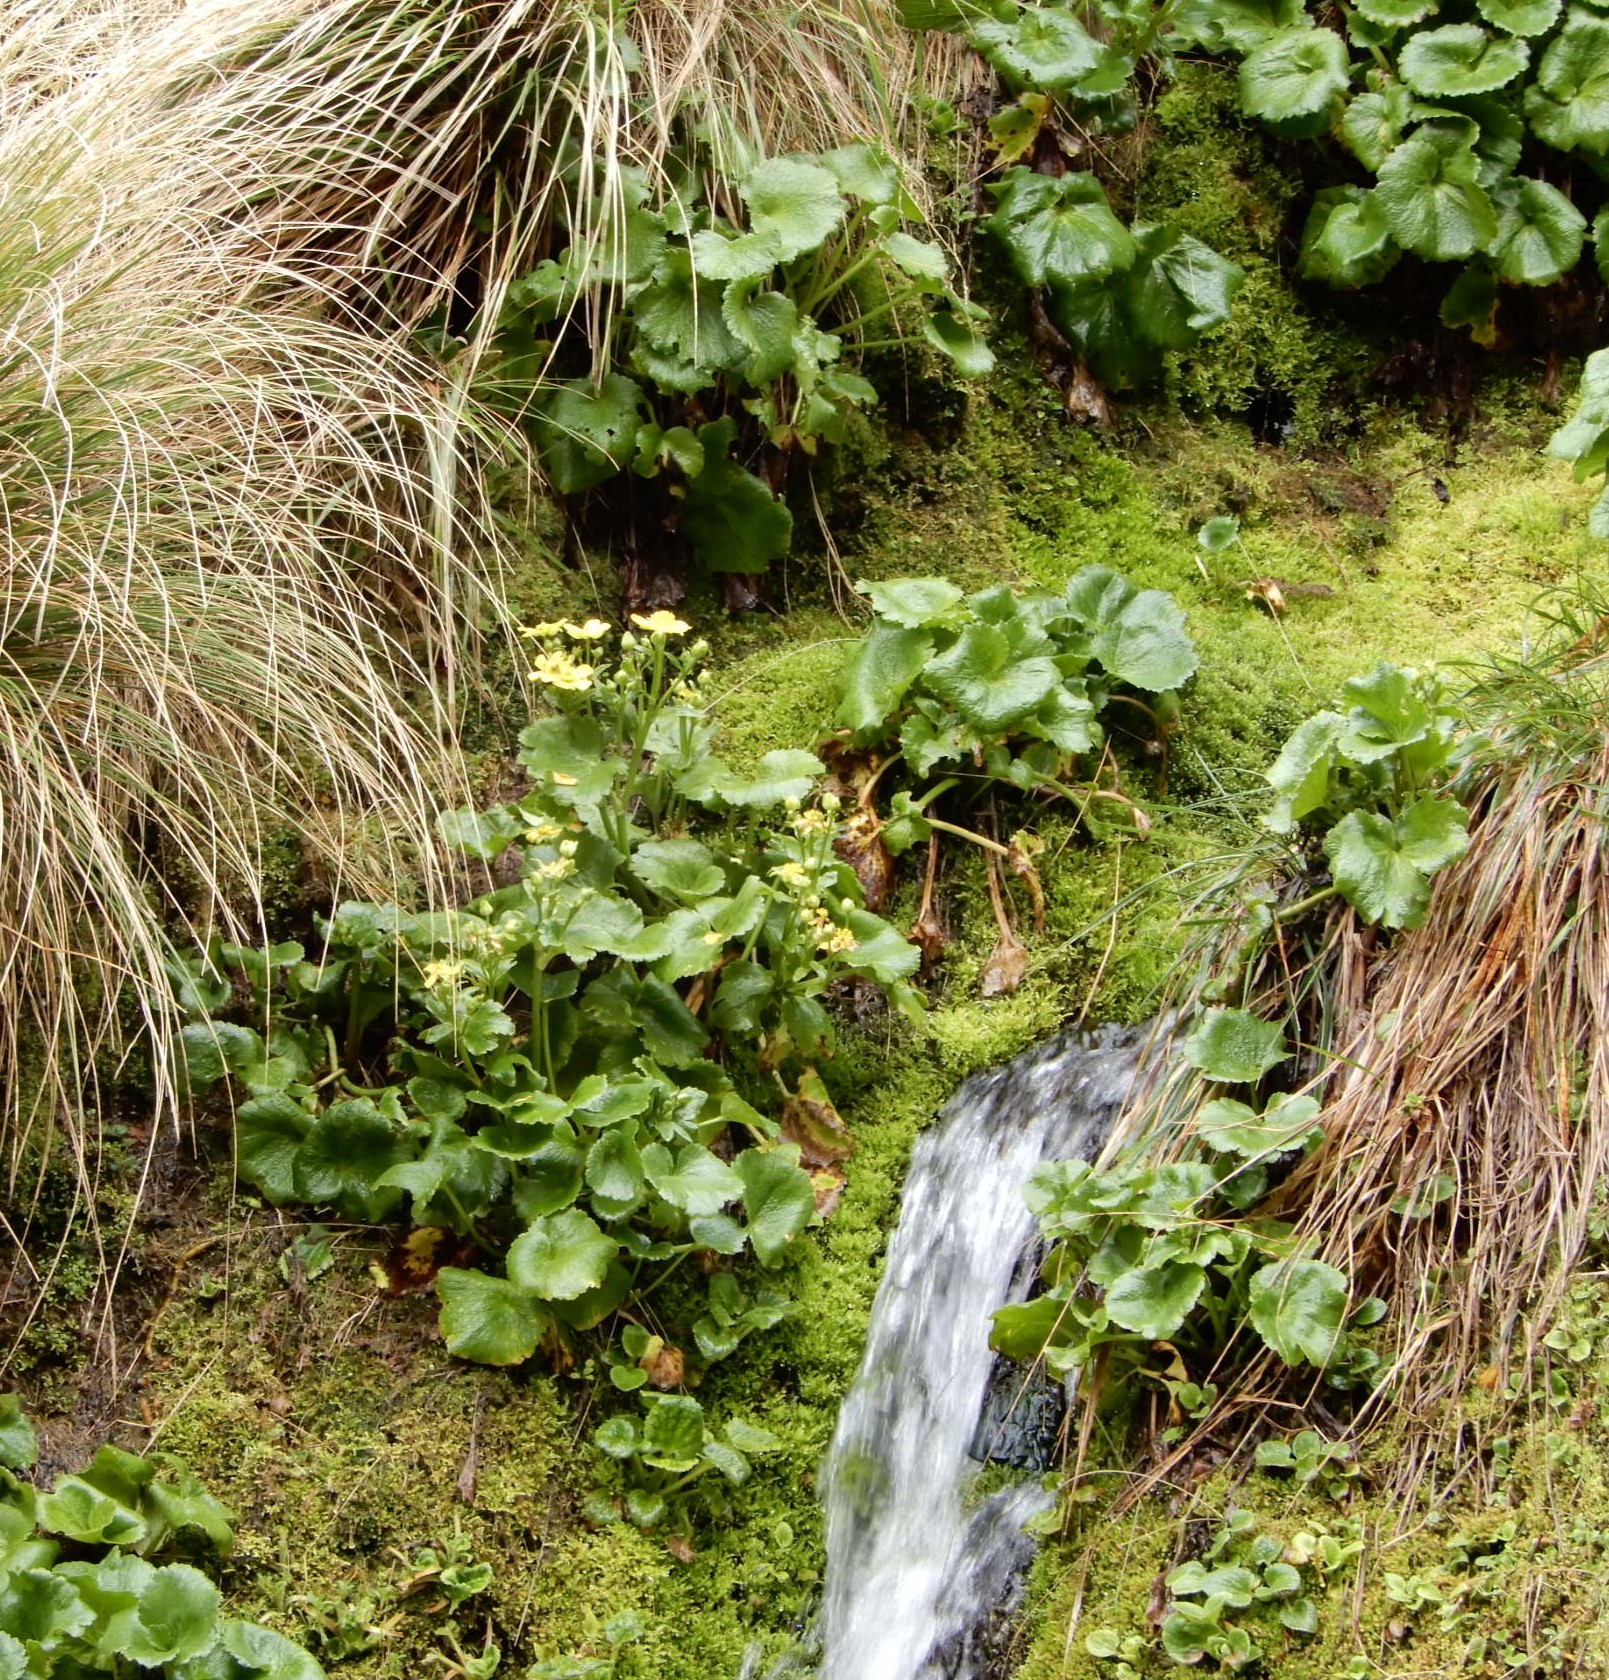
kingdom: Plantae
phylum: Tracheophyta
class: Magnoliopsida
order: Ranunculales
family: Ranunculaceae
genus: Ranunculus
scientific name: Ranunculus insignis
